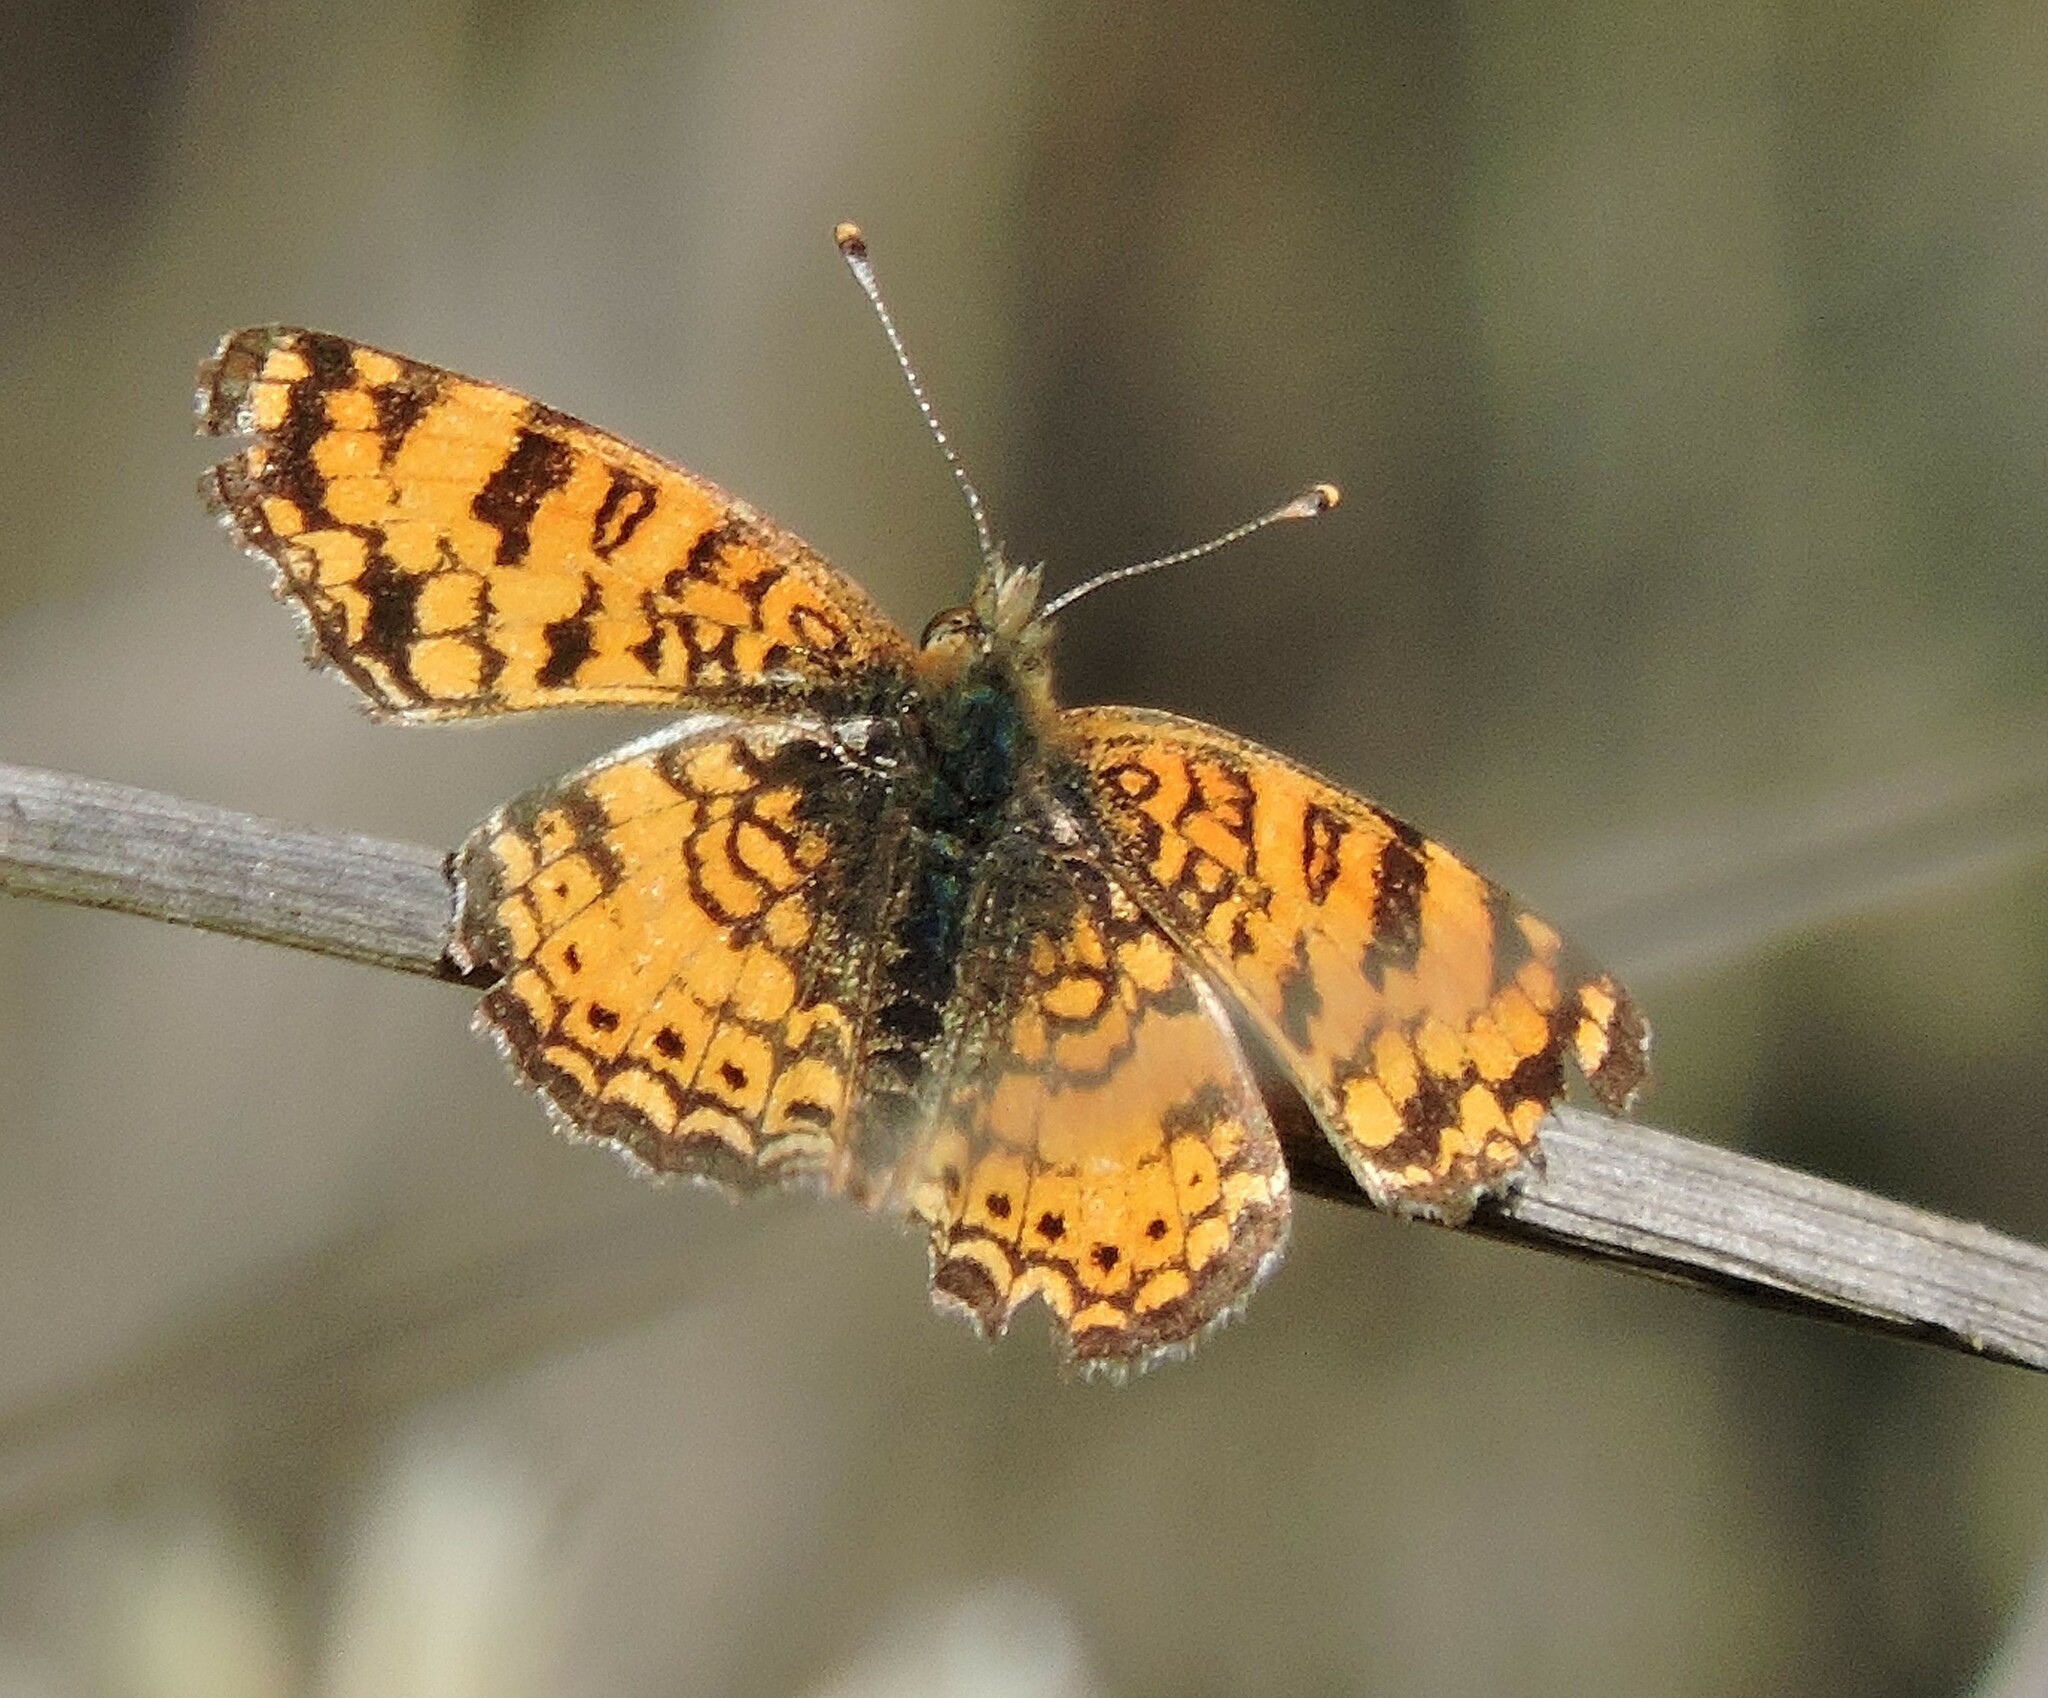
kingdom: Animalia
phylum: Arthropoda
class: Insecta
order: Lepidoptera
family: Nymphalidae
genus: Eresia
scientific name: Eresia aveyrona
